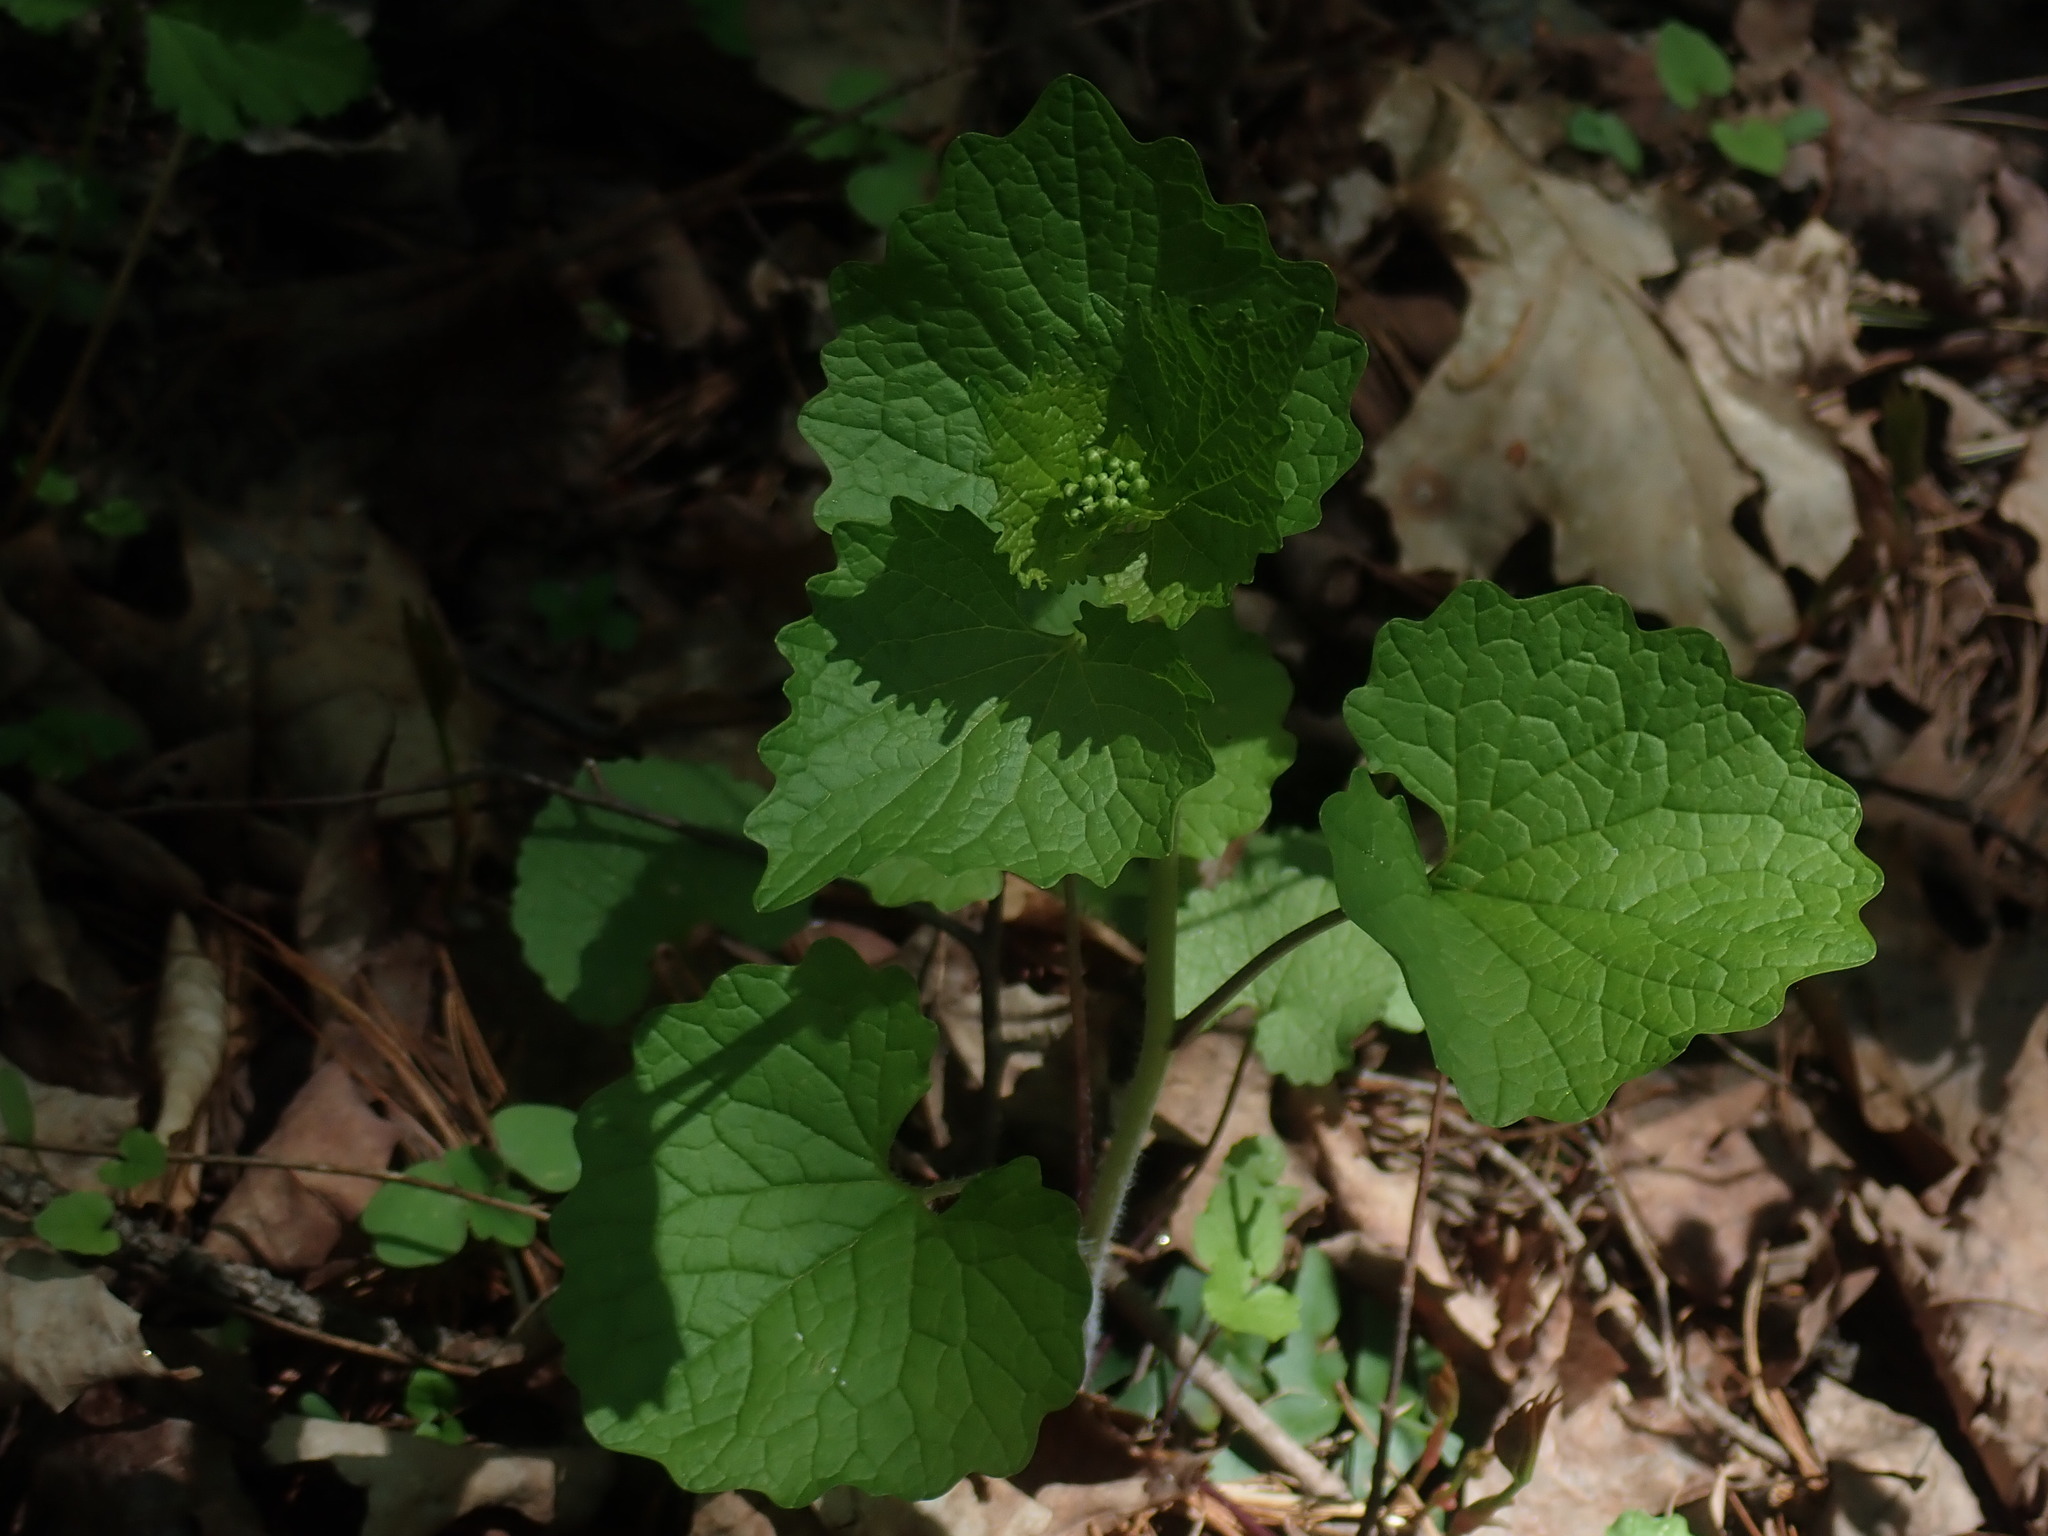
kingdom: Plantae
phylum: Tracheophyta
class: Magnoliopsida
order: Brassicales
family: Brassicaceae
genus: Alliaria
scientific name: Alliaria petiolata
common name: Garlic mustard
